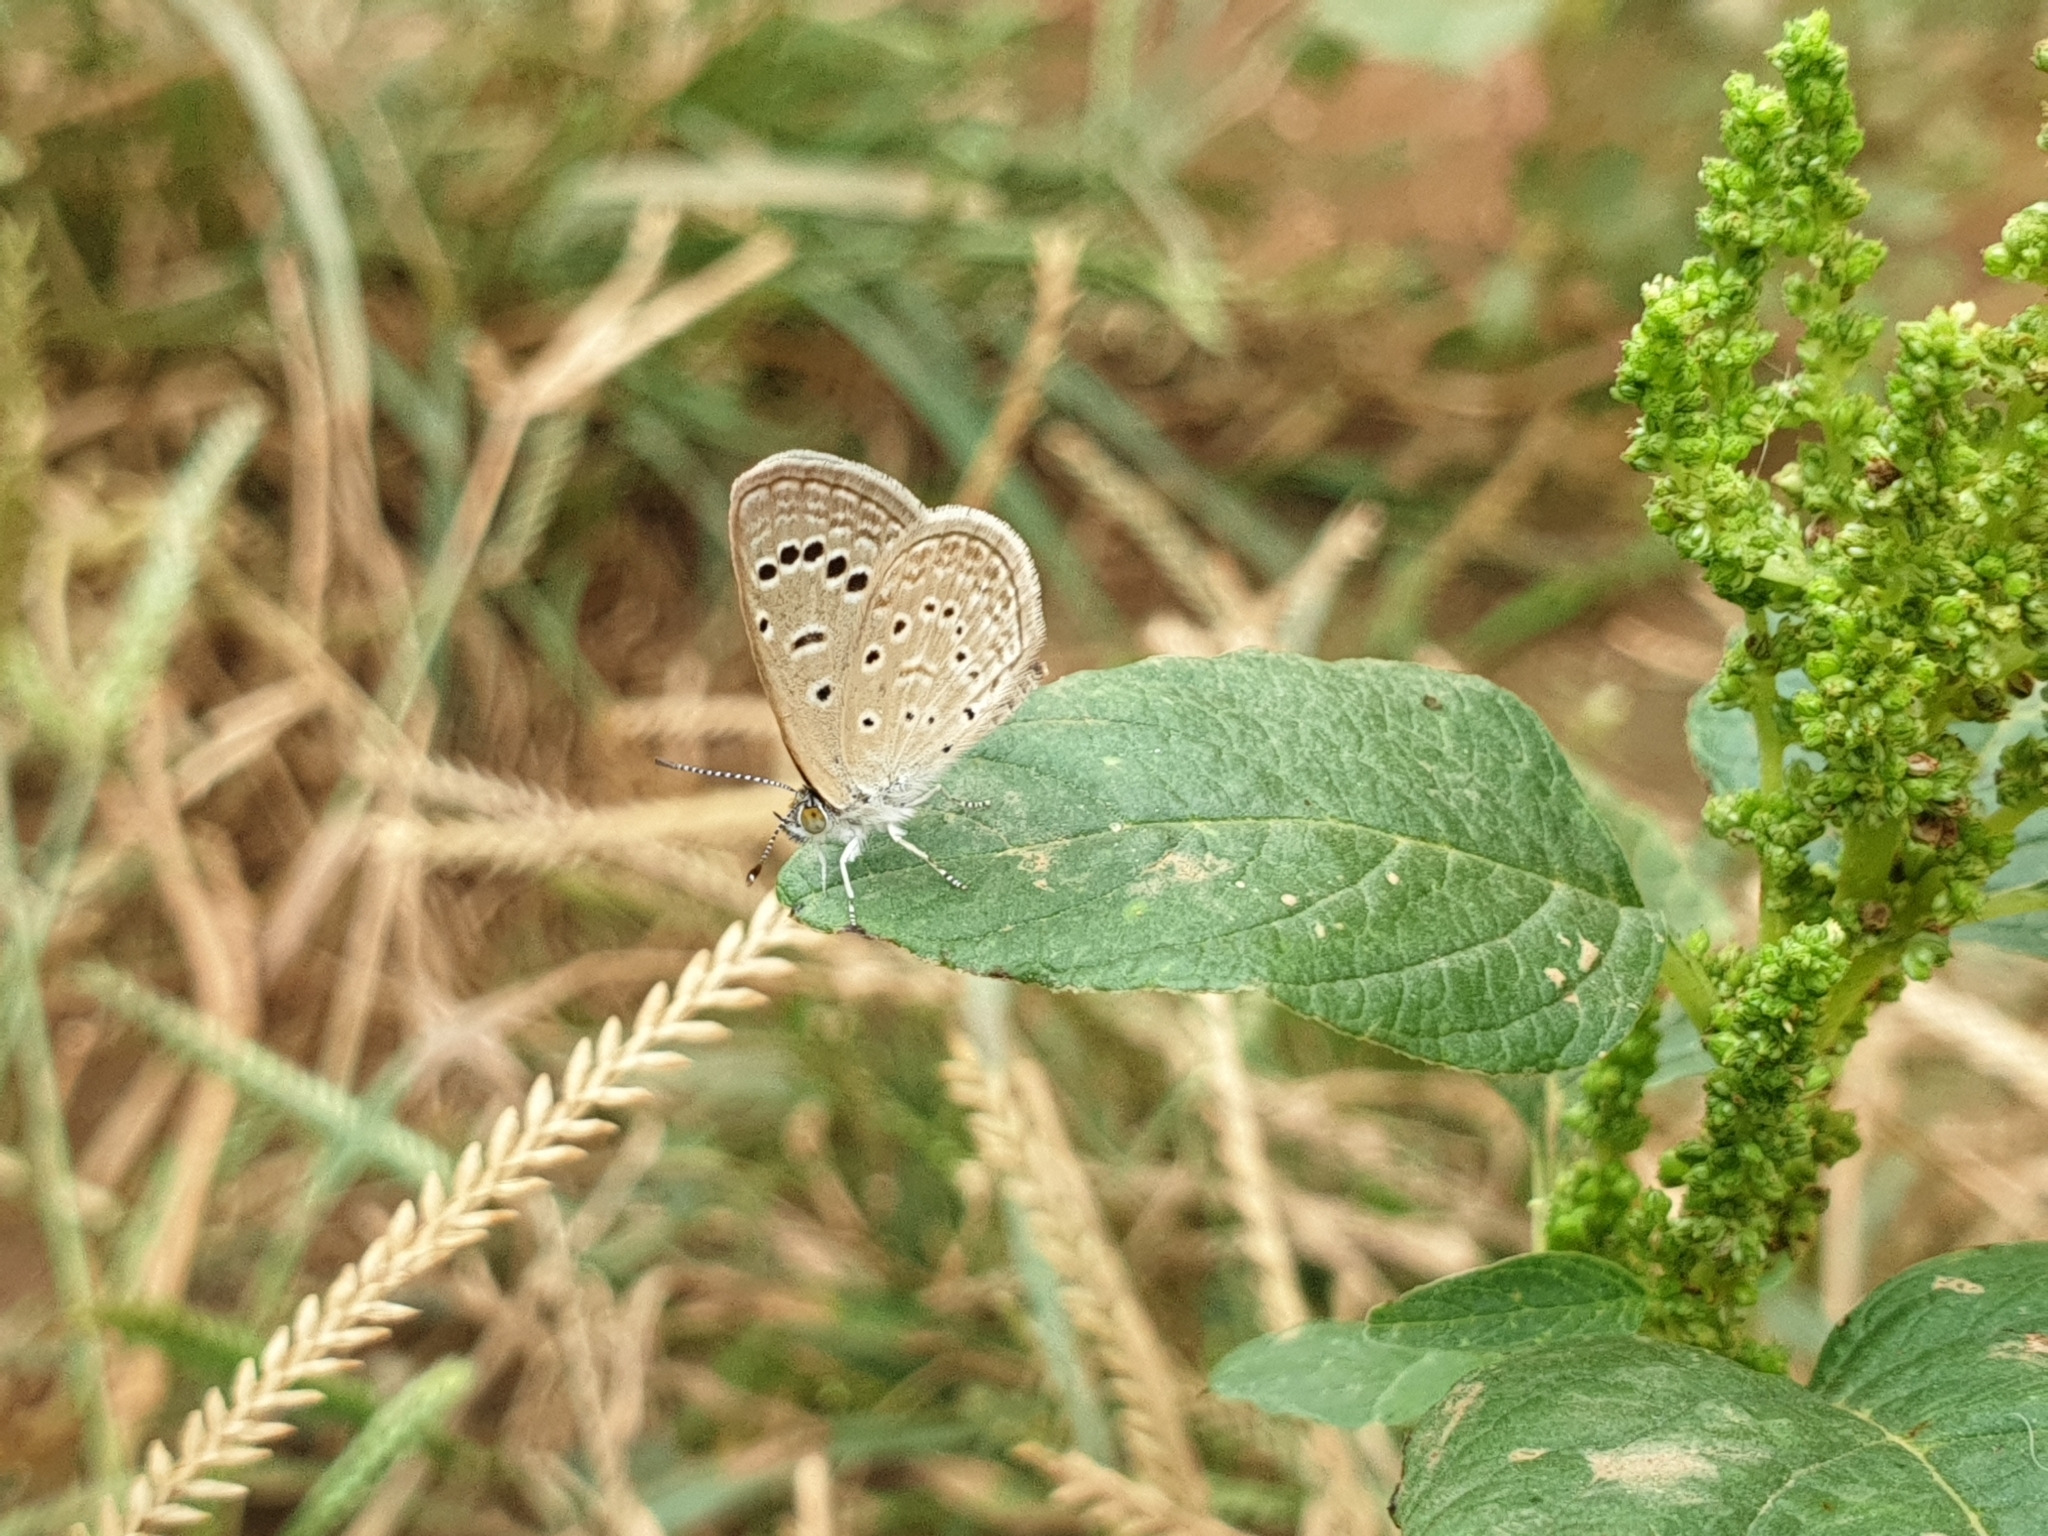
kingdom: Animalia
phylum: Arthropoda
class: Insecta
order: Lepidoptera
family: Lycaenidae
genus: Zizeeria
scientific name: Zizeeria karsandra
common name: Dark grass blue
